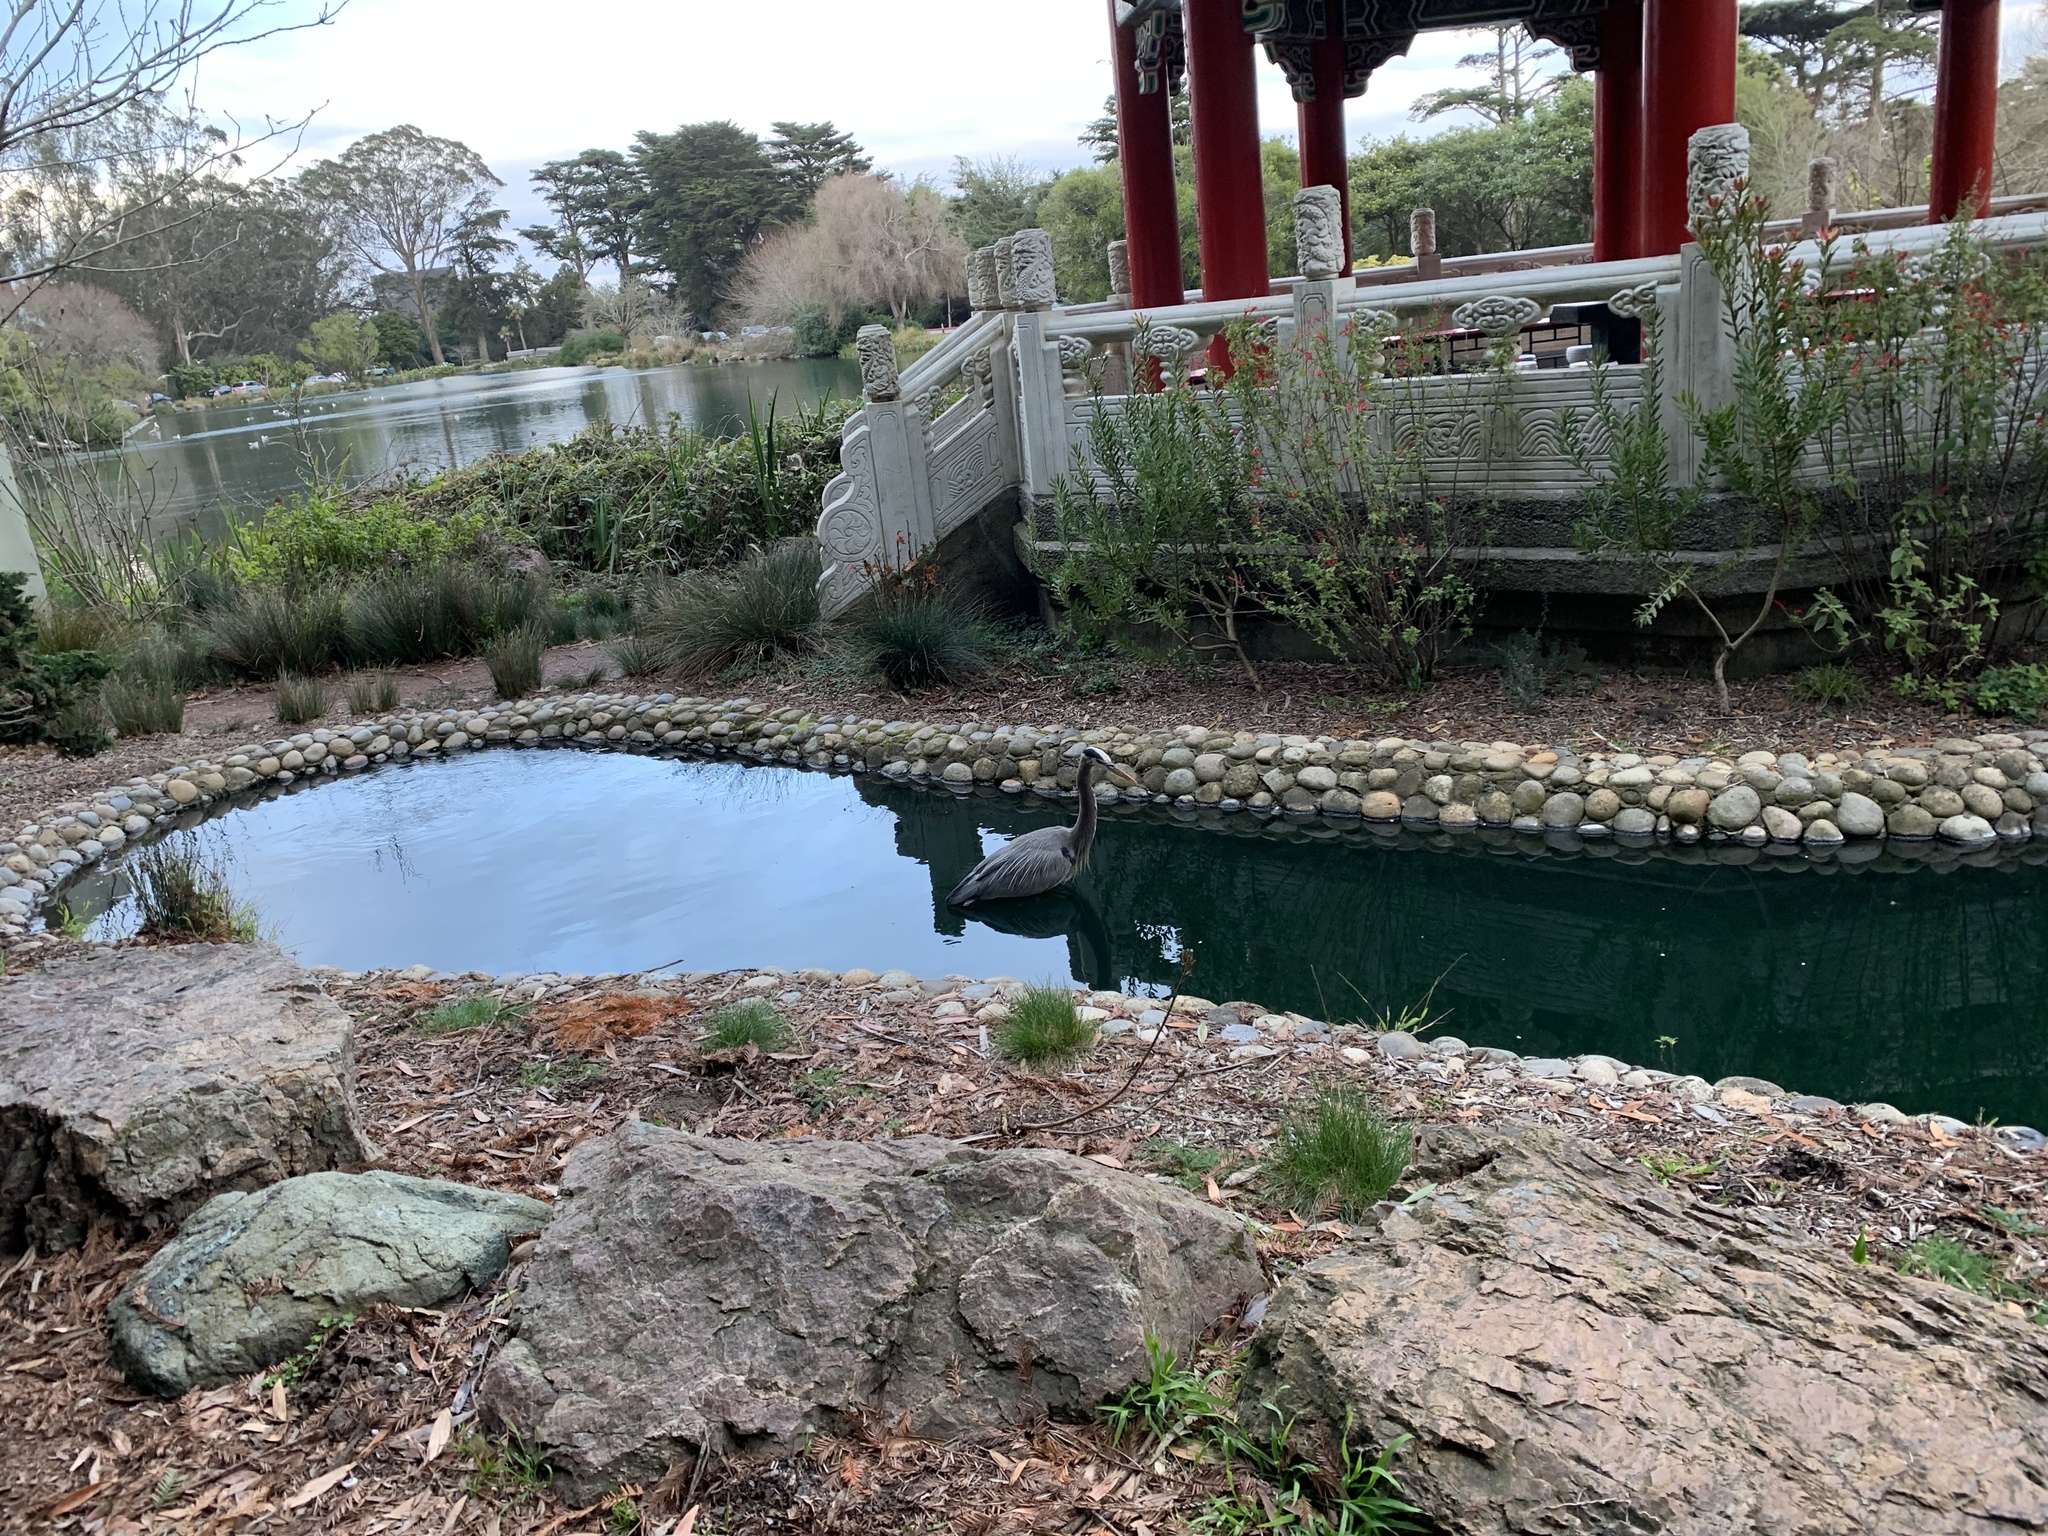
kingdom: Animalia
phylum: Chordata
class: Aves
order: Pelecaniformes
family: Ardeidae
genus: Ardea
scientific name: Ardea herodias
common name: Great blue heron
